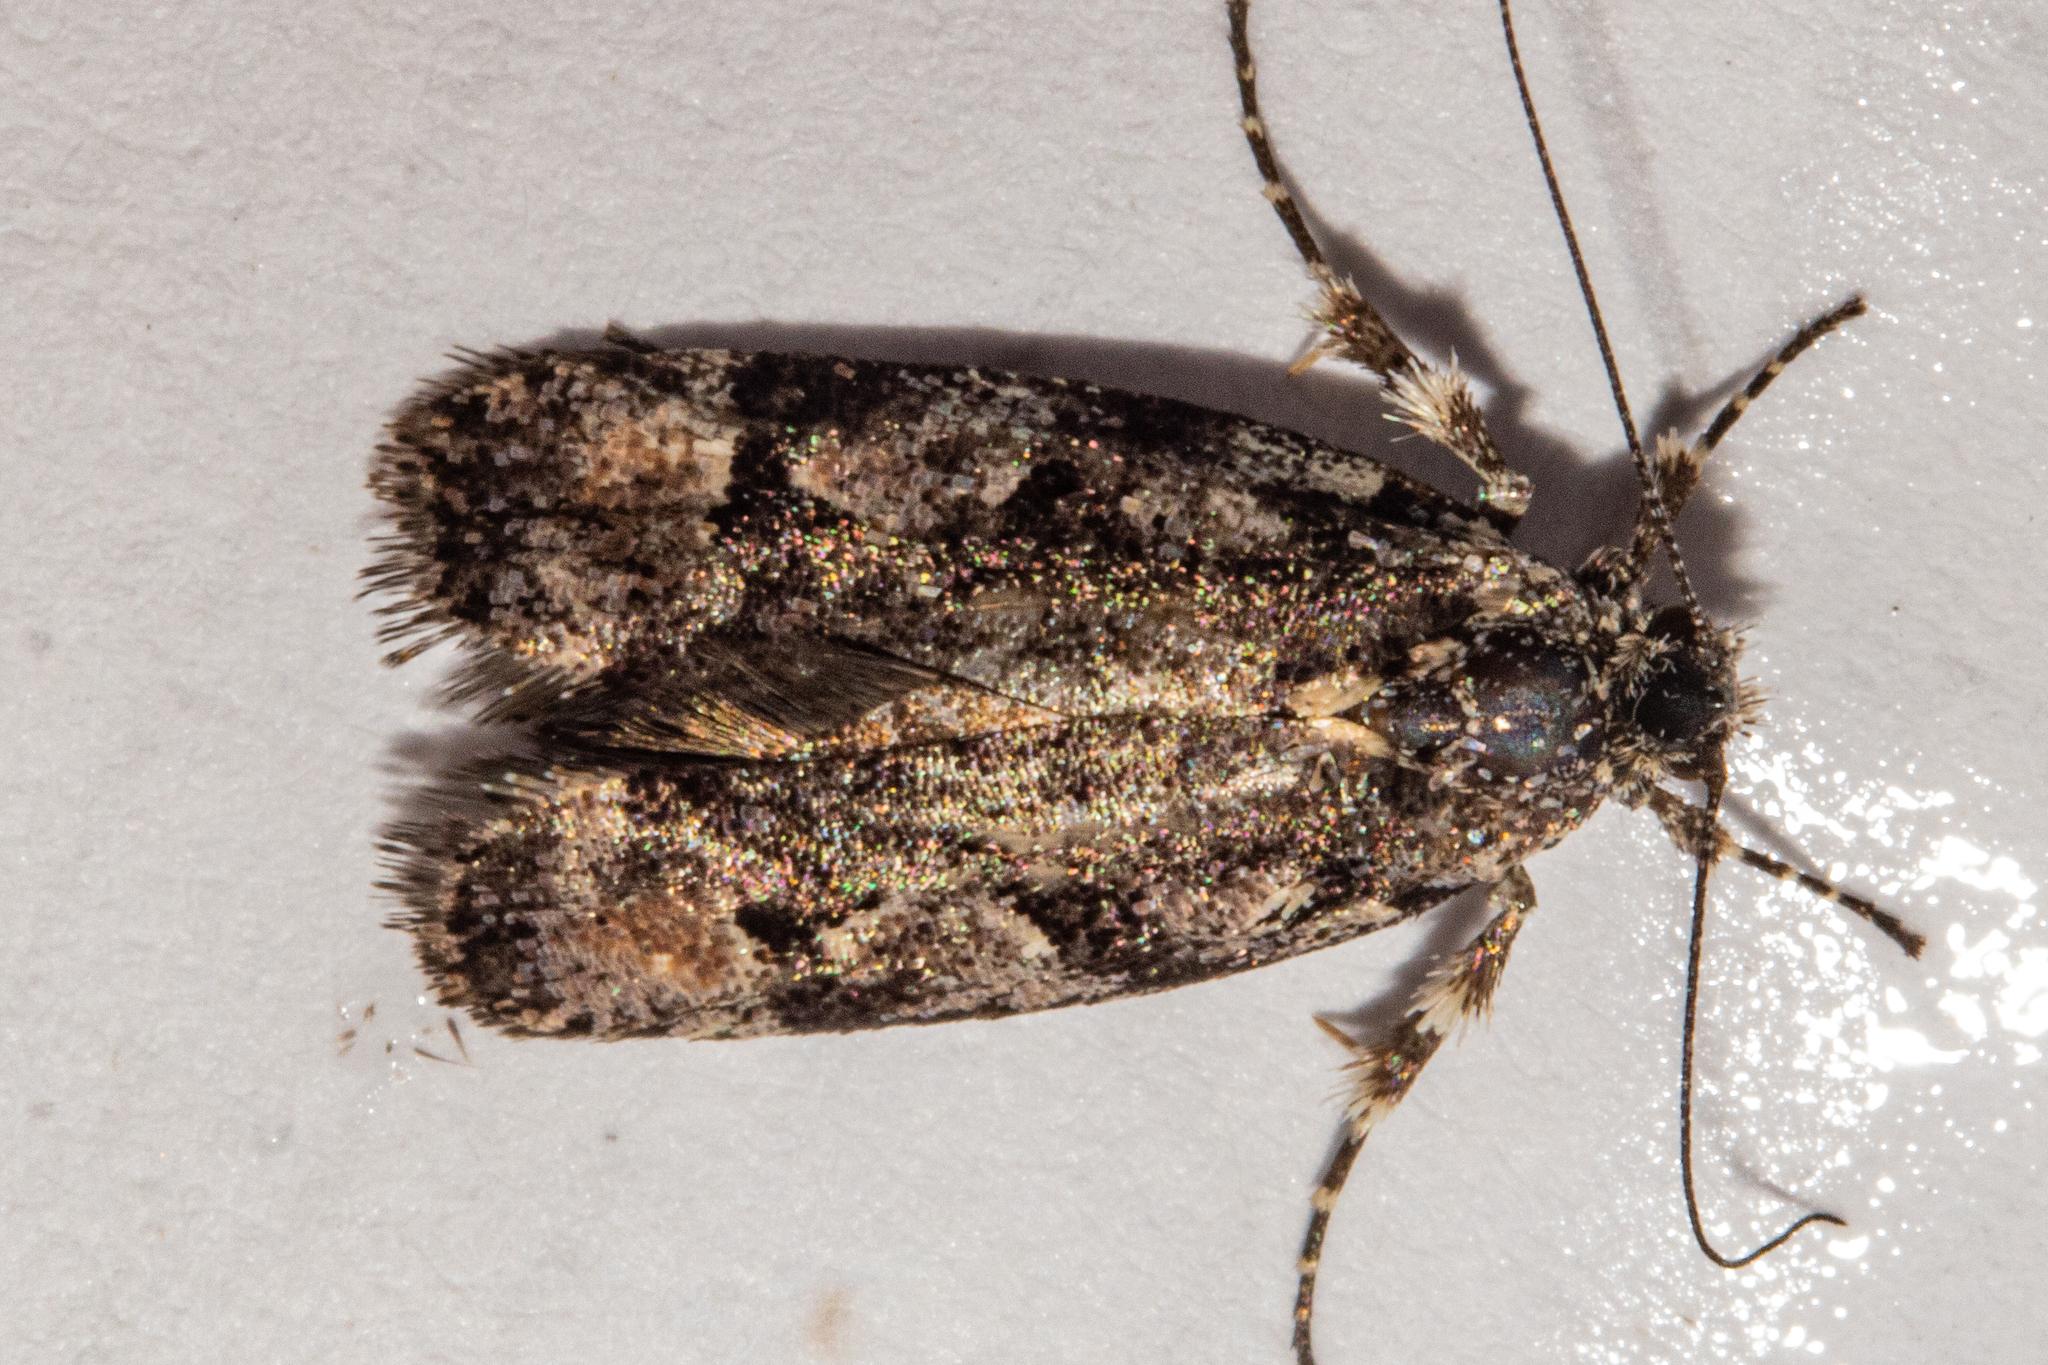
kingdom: Animalia
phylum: Arthropoda
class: Insecta
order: Lepidoptera
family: Oecophoridae
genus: Izatha
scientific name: Izatha florida
